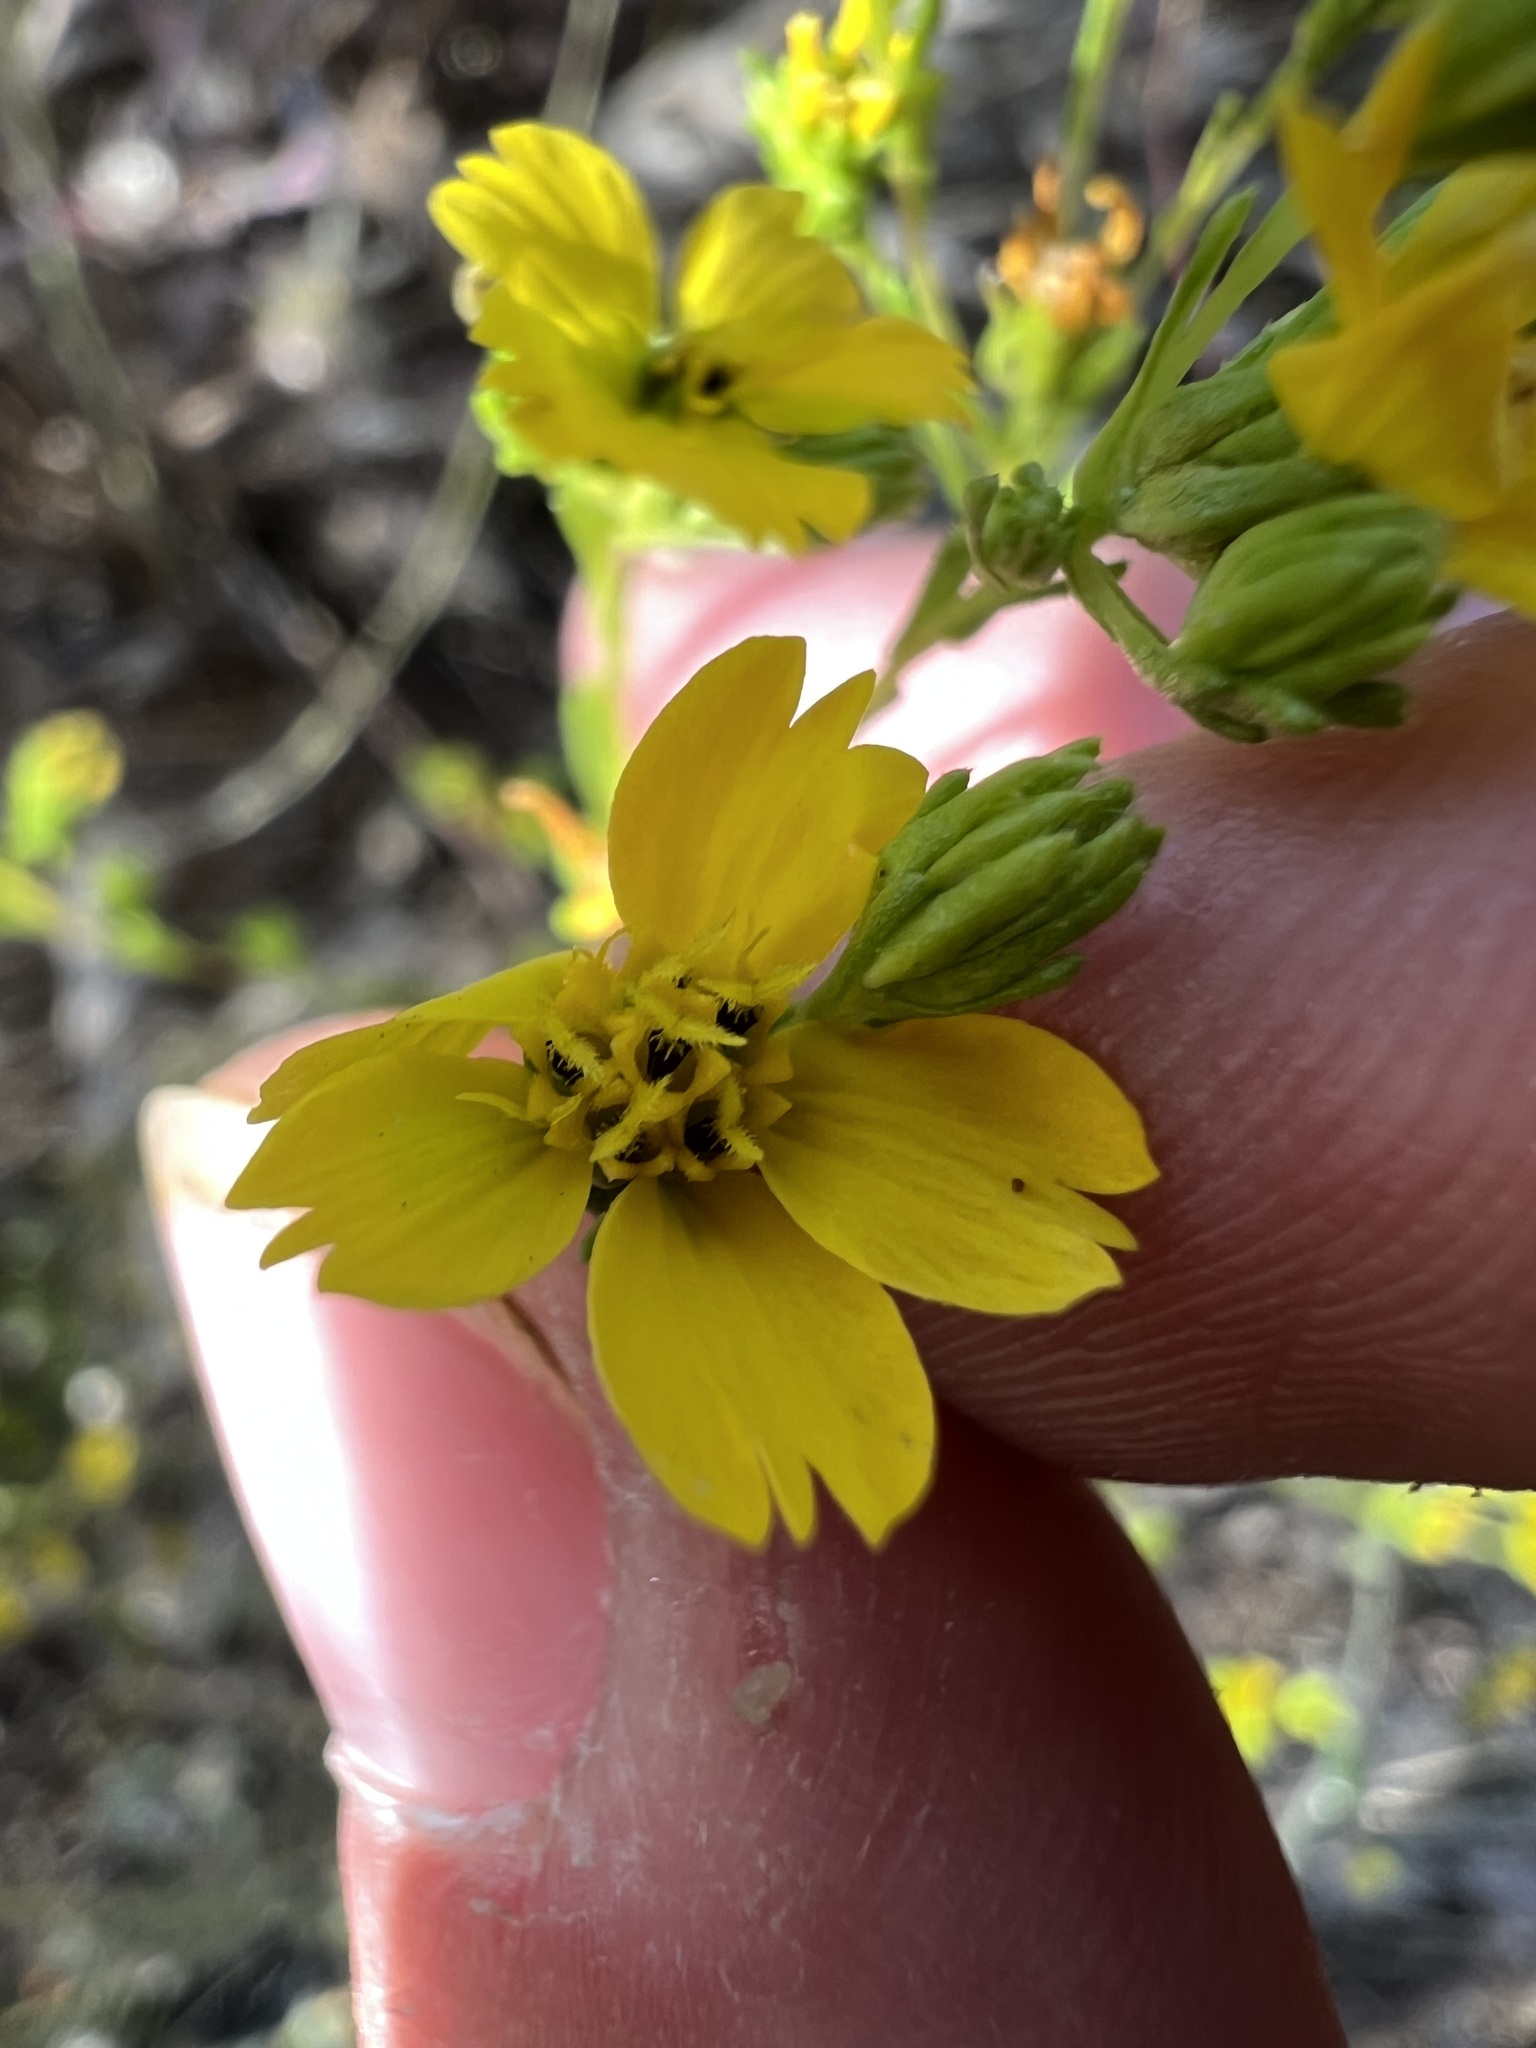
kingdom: Plantae
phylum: Tracheophyta
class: Magnoliopsida
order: Asterales
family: Asteraceae
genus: Deinandra
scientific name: Deinandra fasciculata
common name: Clustered tarweed
